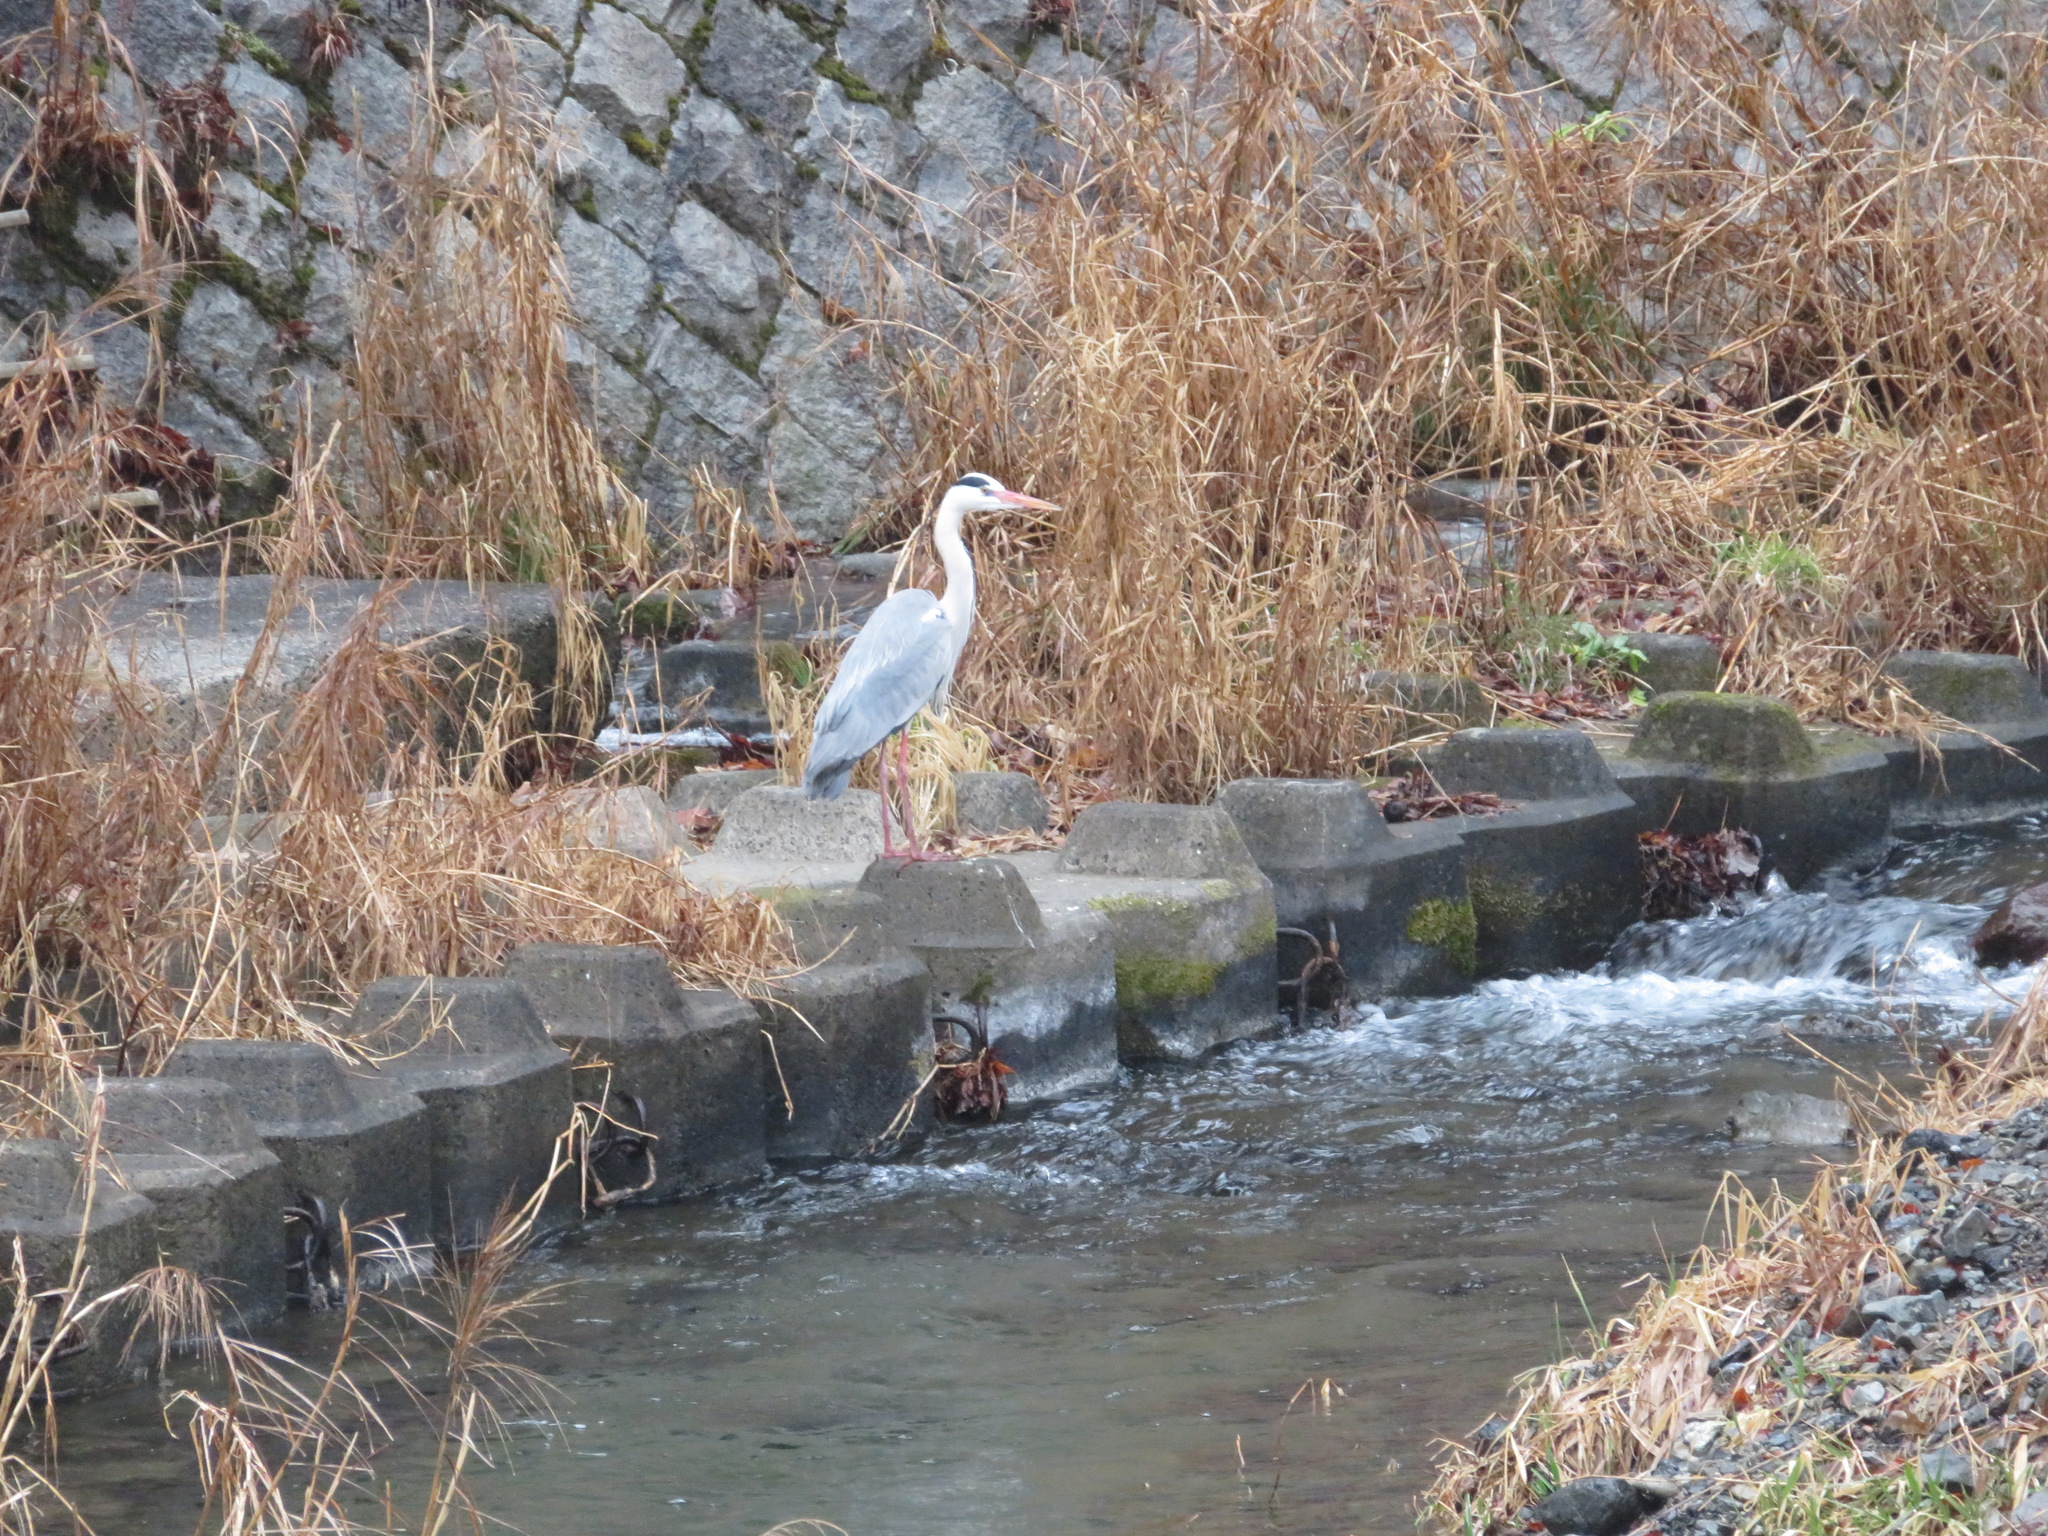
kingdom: Animalia
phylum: Chordata
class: Aves
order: Pelecaniformes
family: Ardeidae
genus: Ardea
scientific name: Ardea cinerea
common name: Grey heron
